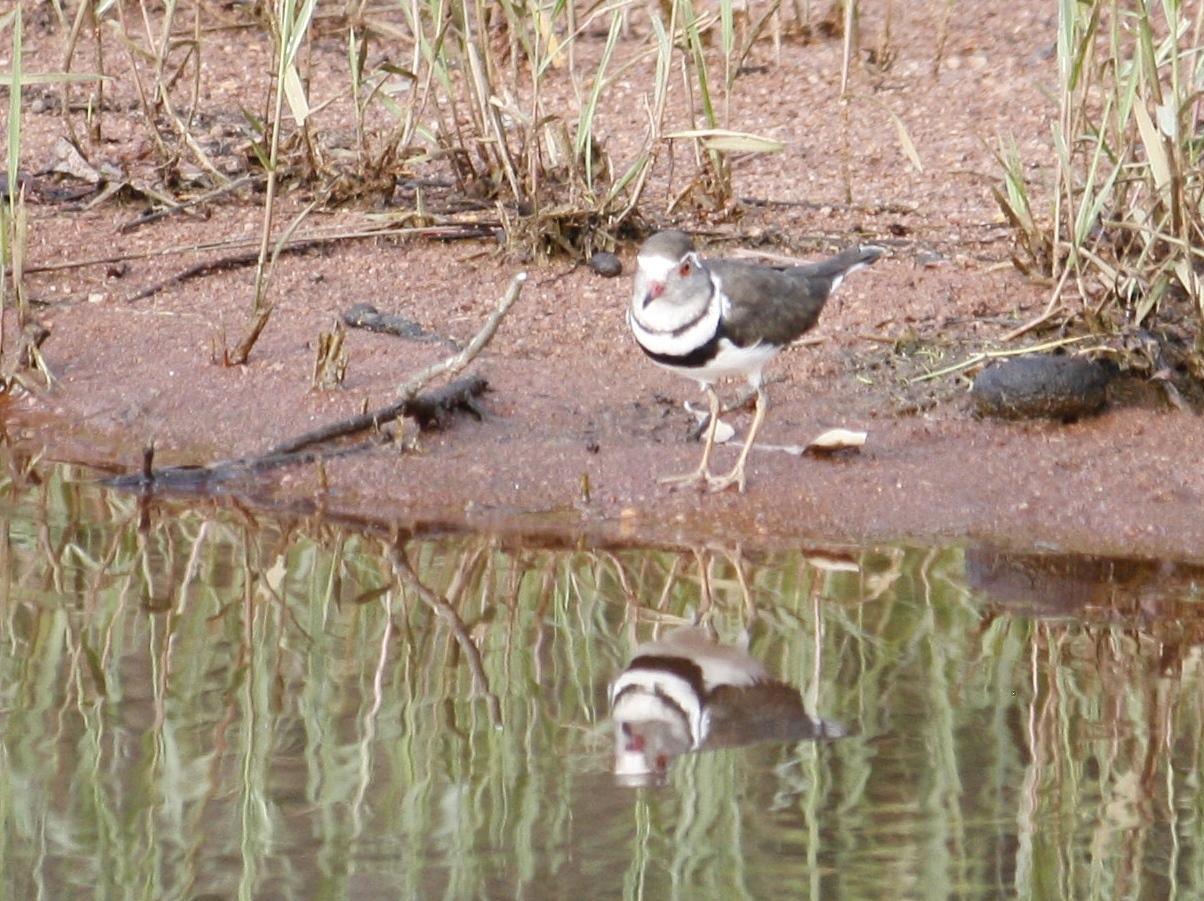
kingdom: Animalia
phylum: Chordata
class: Aves
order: Charadriiformes
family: Charadriidae
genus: Charadrius
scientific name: Charadrius tricollaris
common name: Three-banded plover
